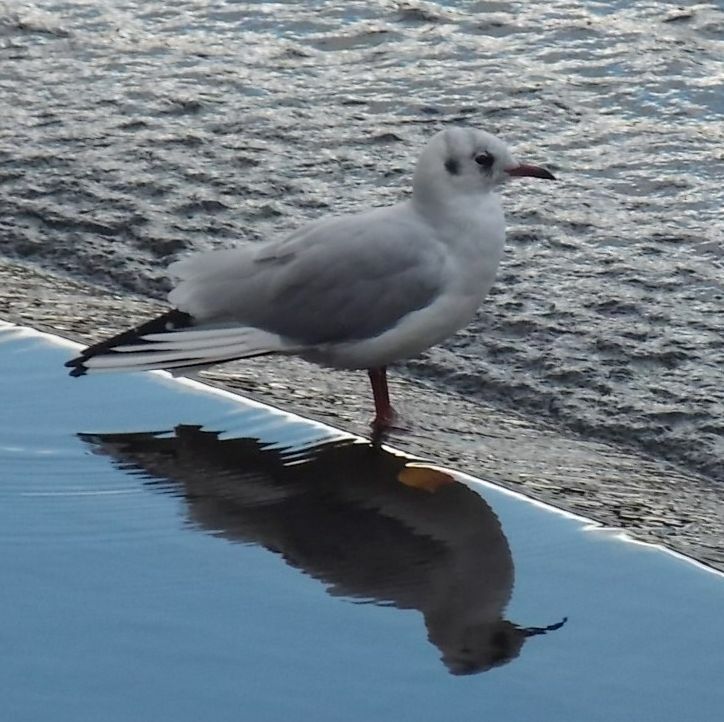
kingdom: Animalia
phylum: Chordata
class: Aves
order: Charadriiformes
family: Laridae
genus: Chroicocephalus
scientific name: Chroicocephalus ridibundus
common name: Black-headed gull
